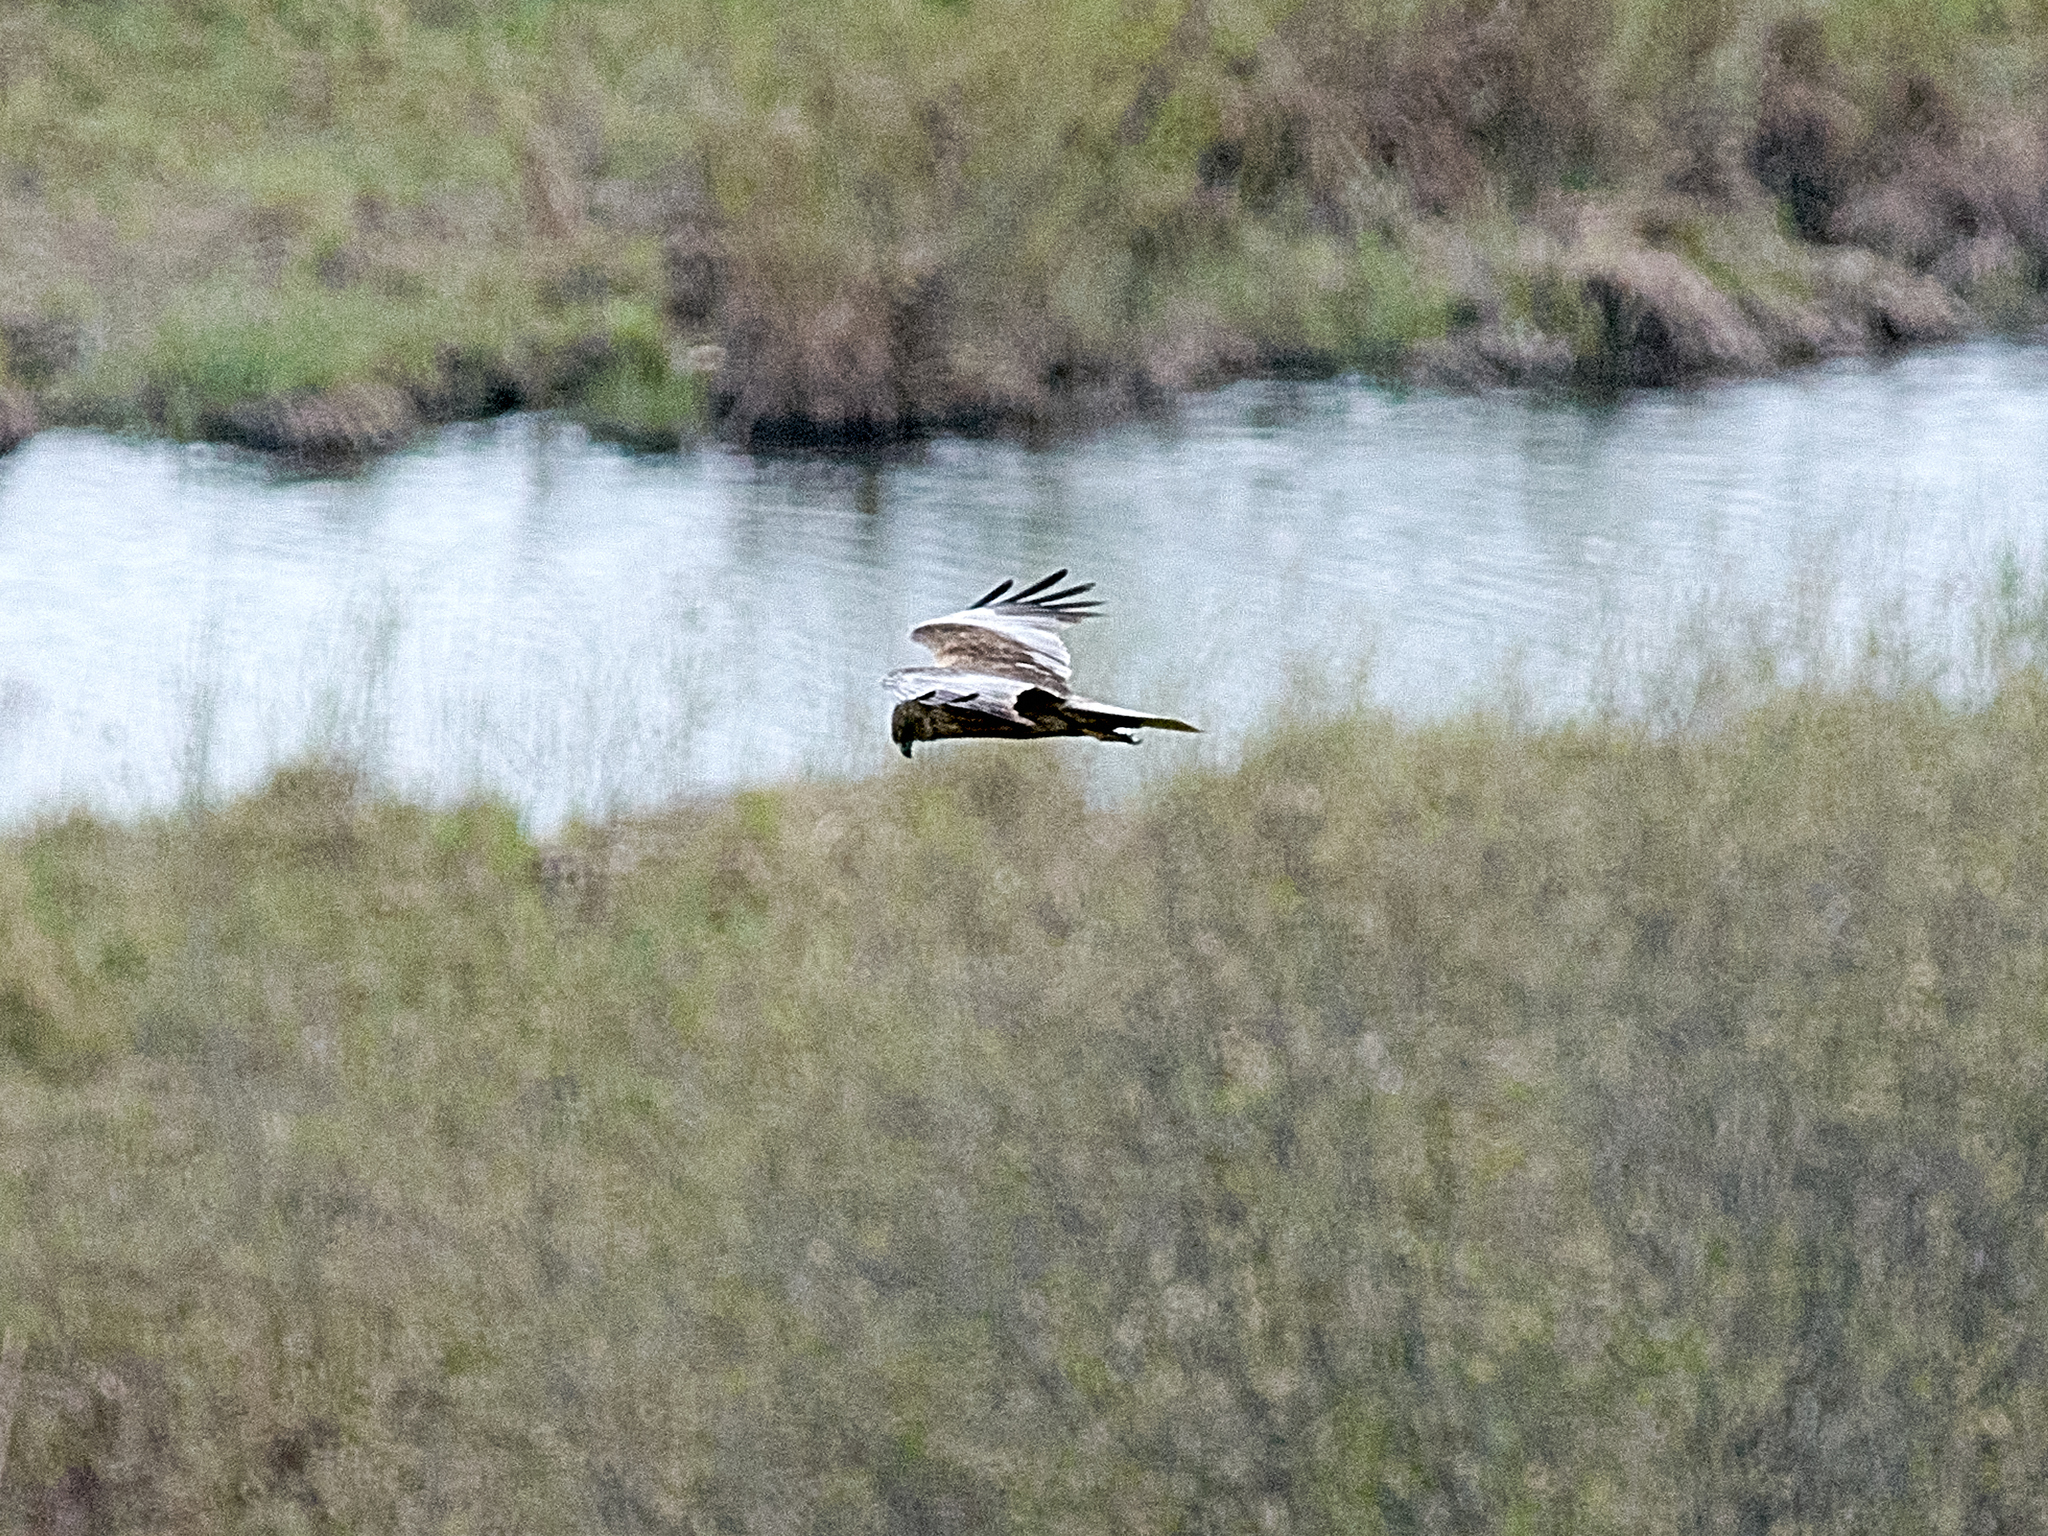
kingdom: Animalia
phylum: Chordata
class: Aves
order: Accipitriformes
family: Accipitridae
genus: Circus
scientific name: Circus aeruginosus
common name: Western marsh harrier
